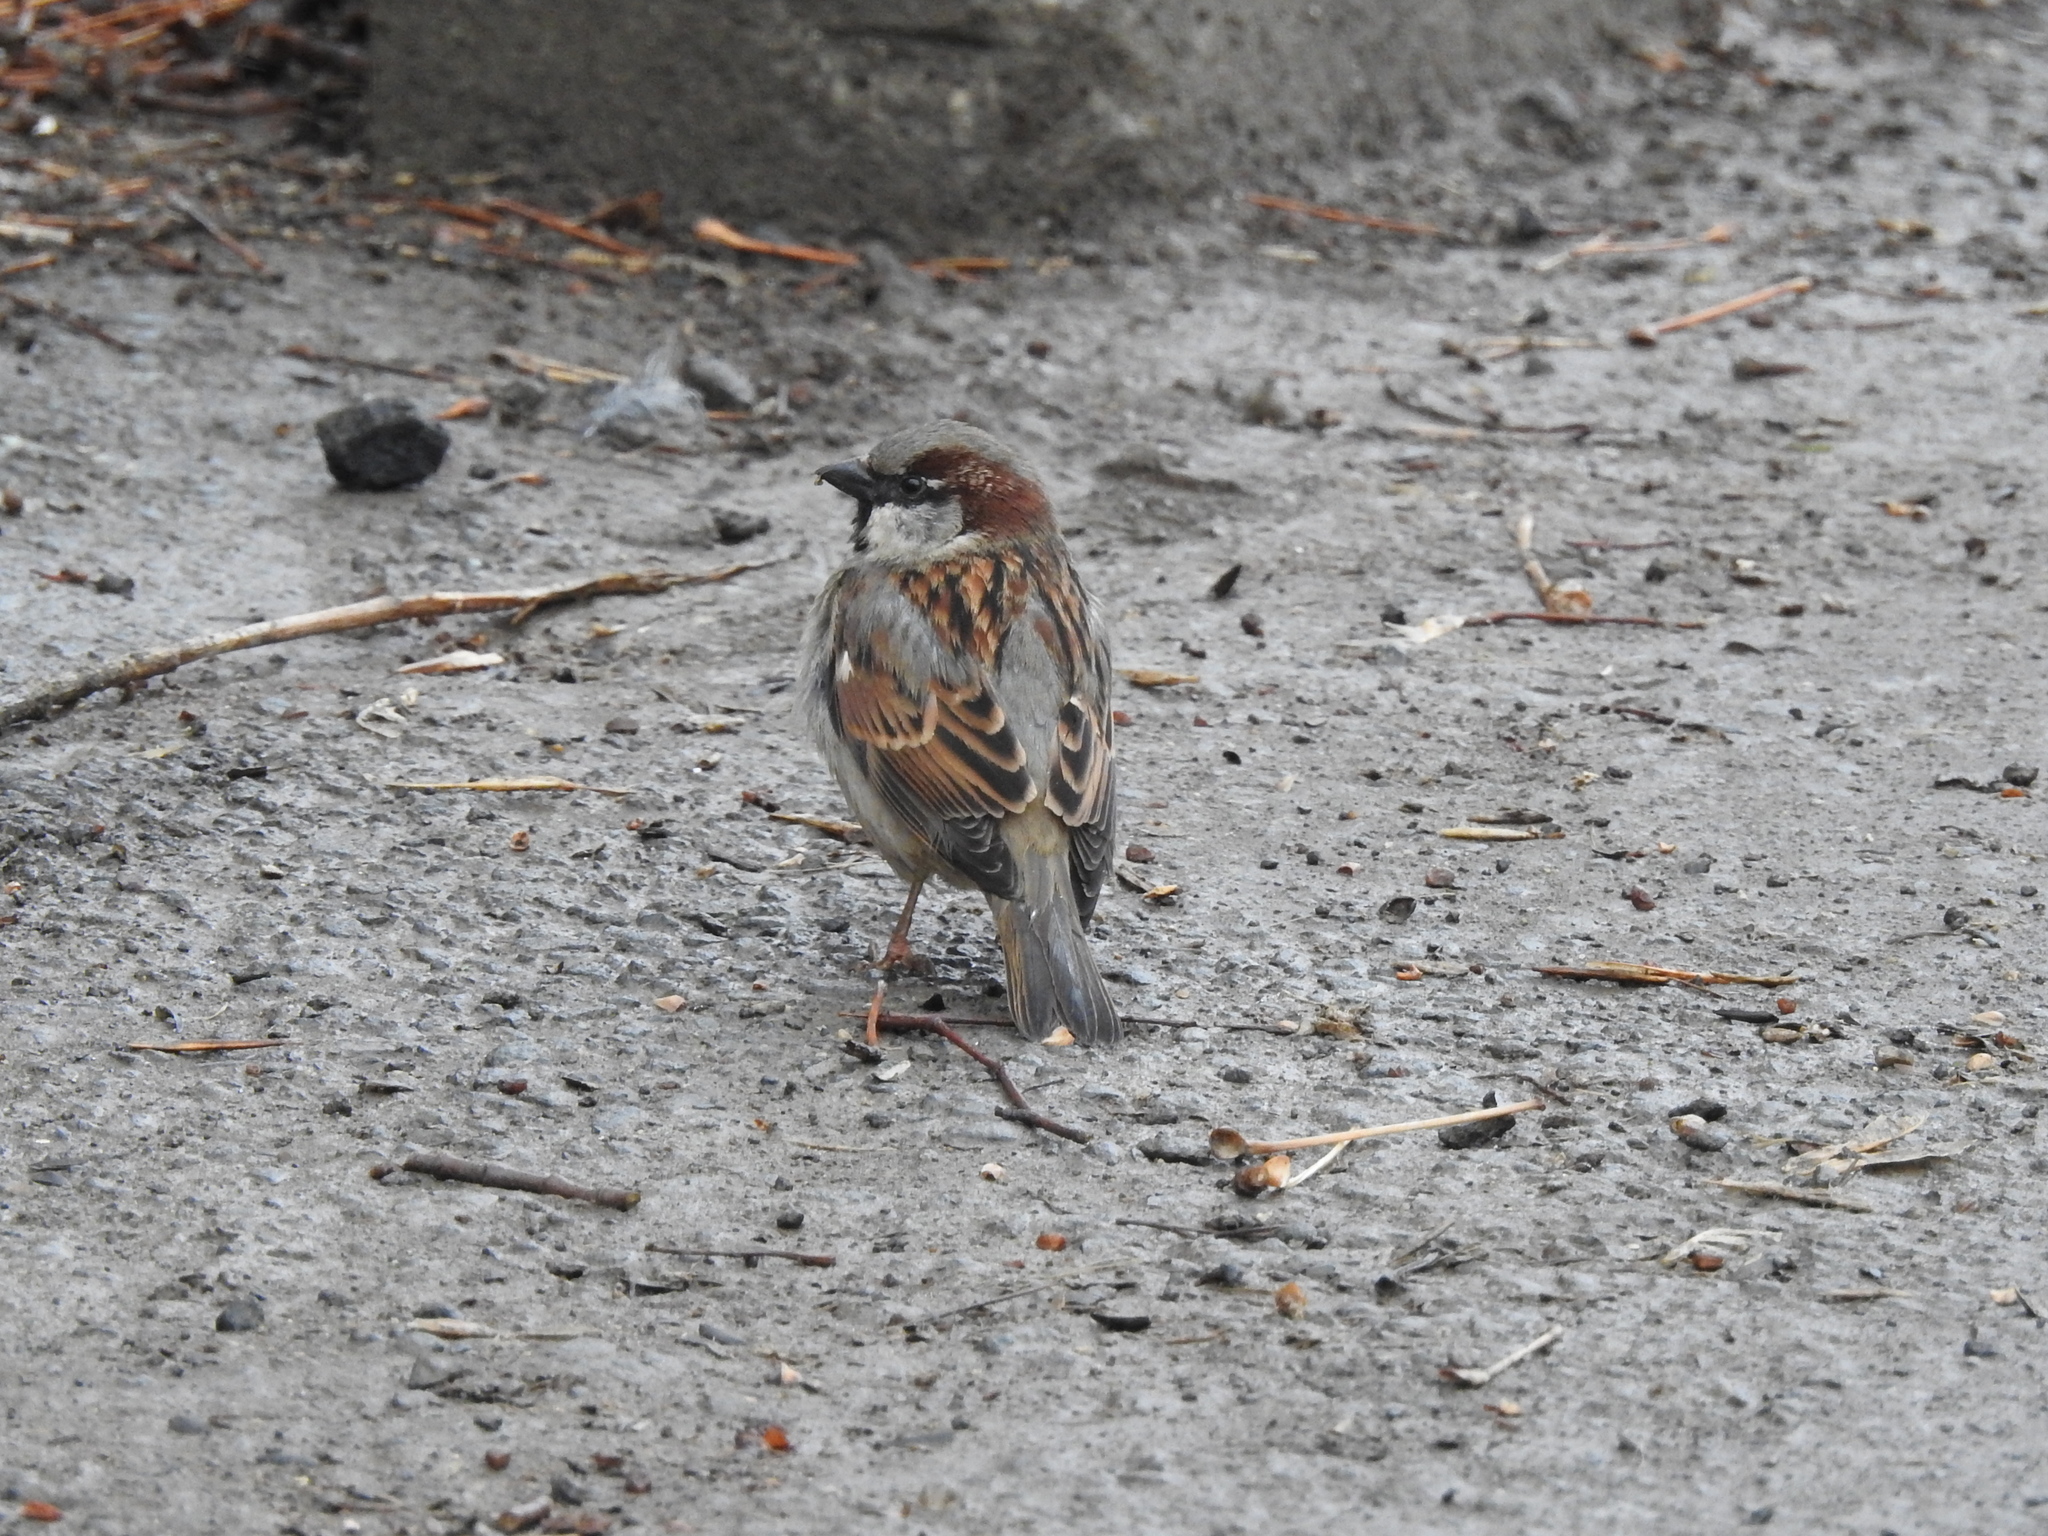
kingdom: Animalia
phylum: Chordata
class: Aves
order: Passeriformes
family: Passeridae
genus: Passer
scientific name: Passer domesticus
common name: House sparrow
